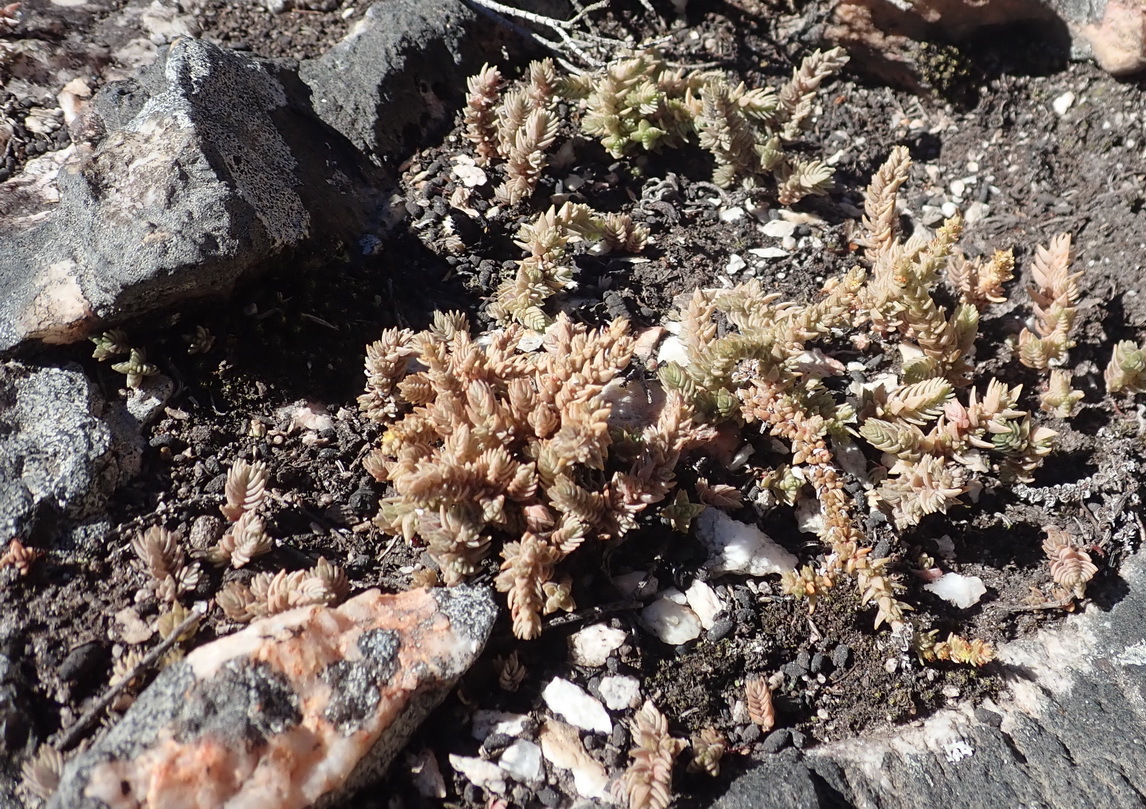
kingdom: Plantae
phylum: Tracheophyta
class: Magnoliopsida
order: Saxifragales
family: Crassulaceae
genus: Crassula
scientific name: Crassula muscosa
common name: Toy-cypress
